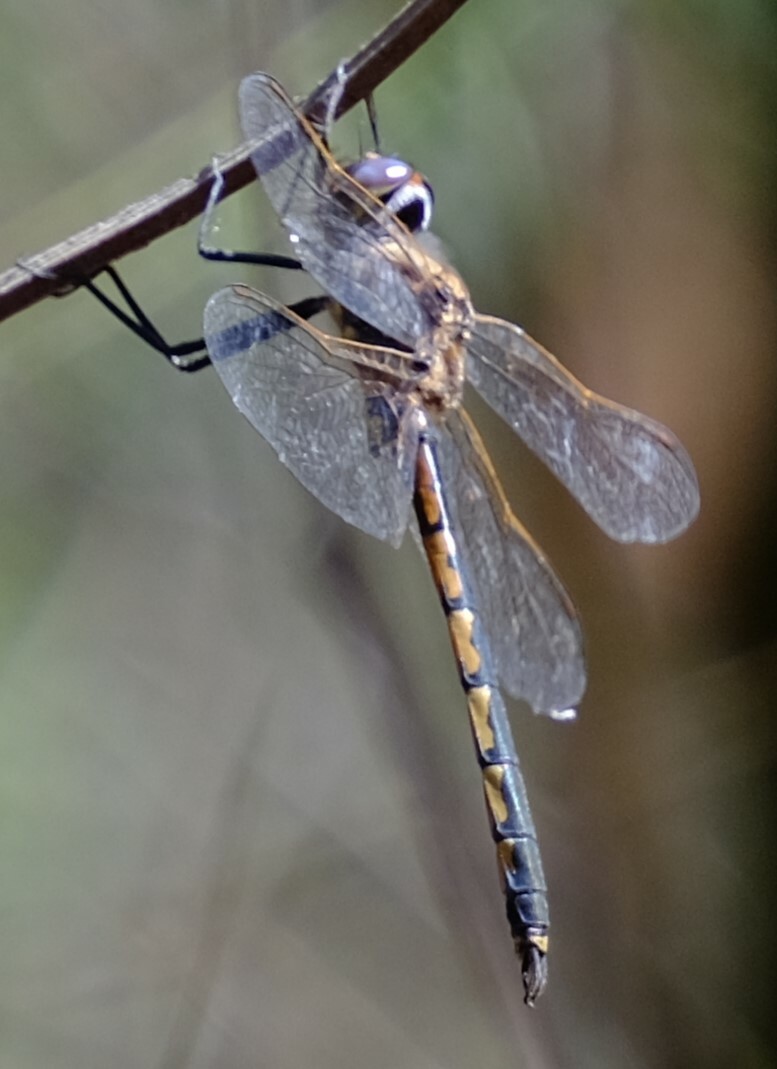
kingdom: Animalia
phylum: Arthropoda
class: Insecta
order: Odonata
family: Corduliidae
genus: Hemicordulia
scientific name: Hemicordulia tau
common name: Tau emerald
